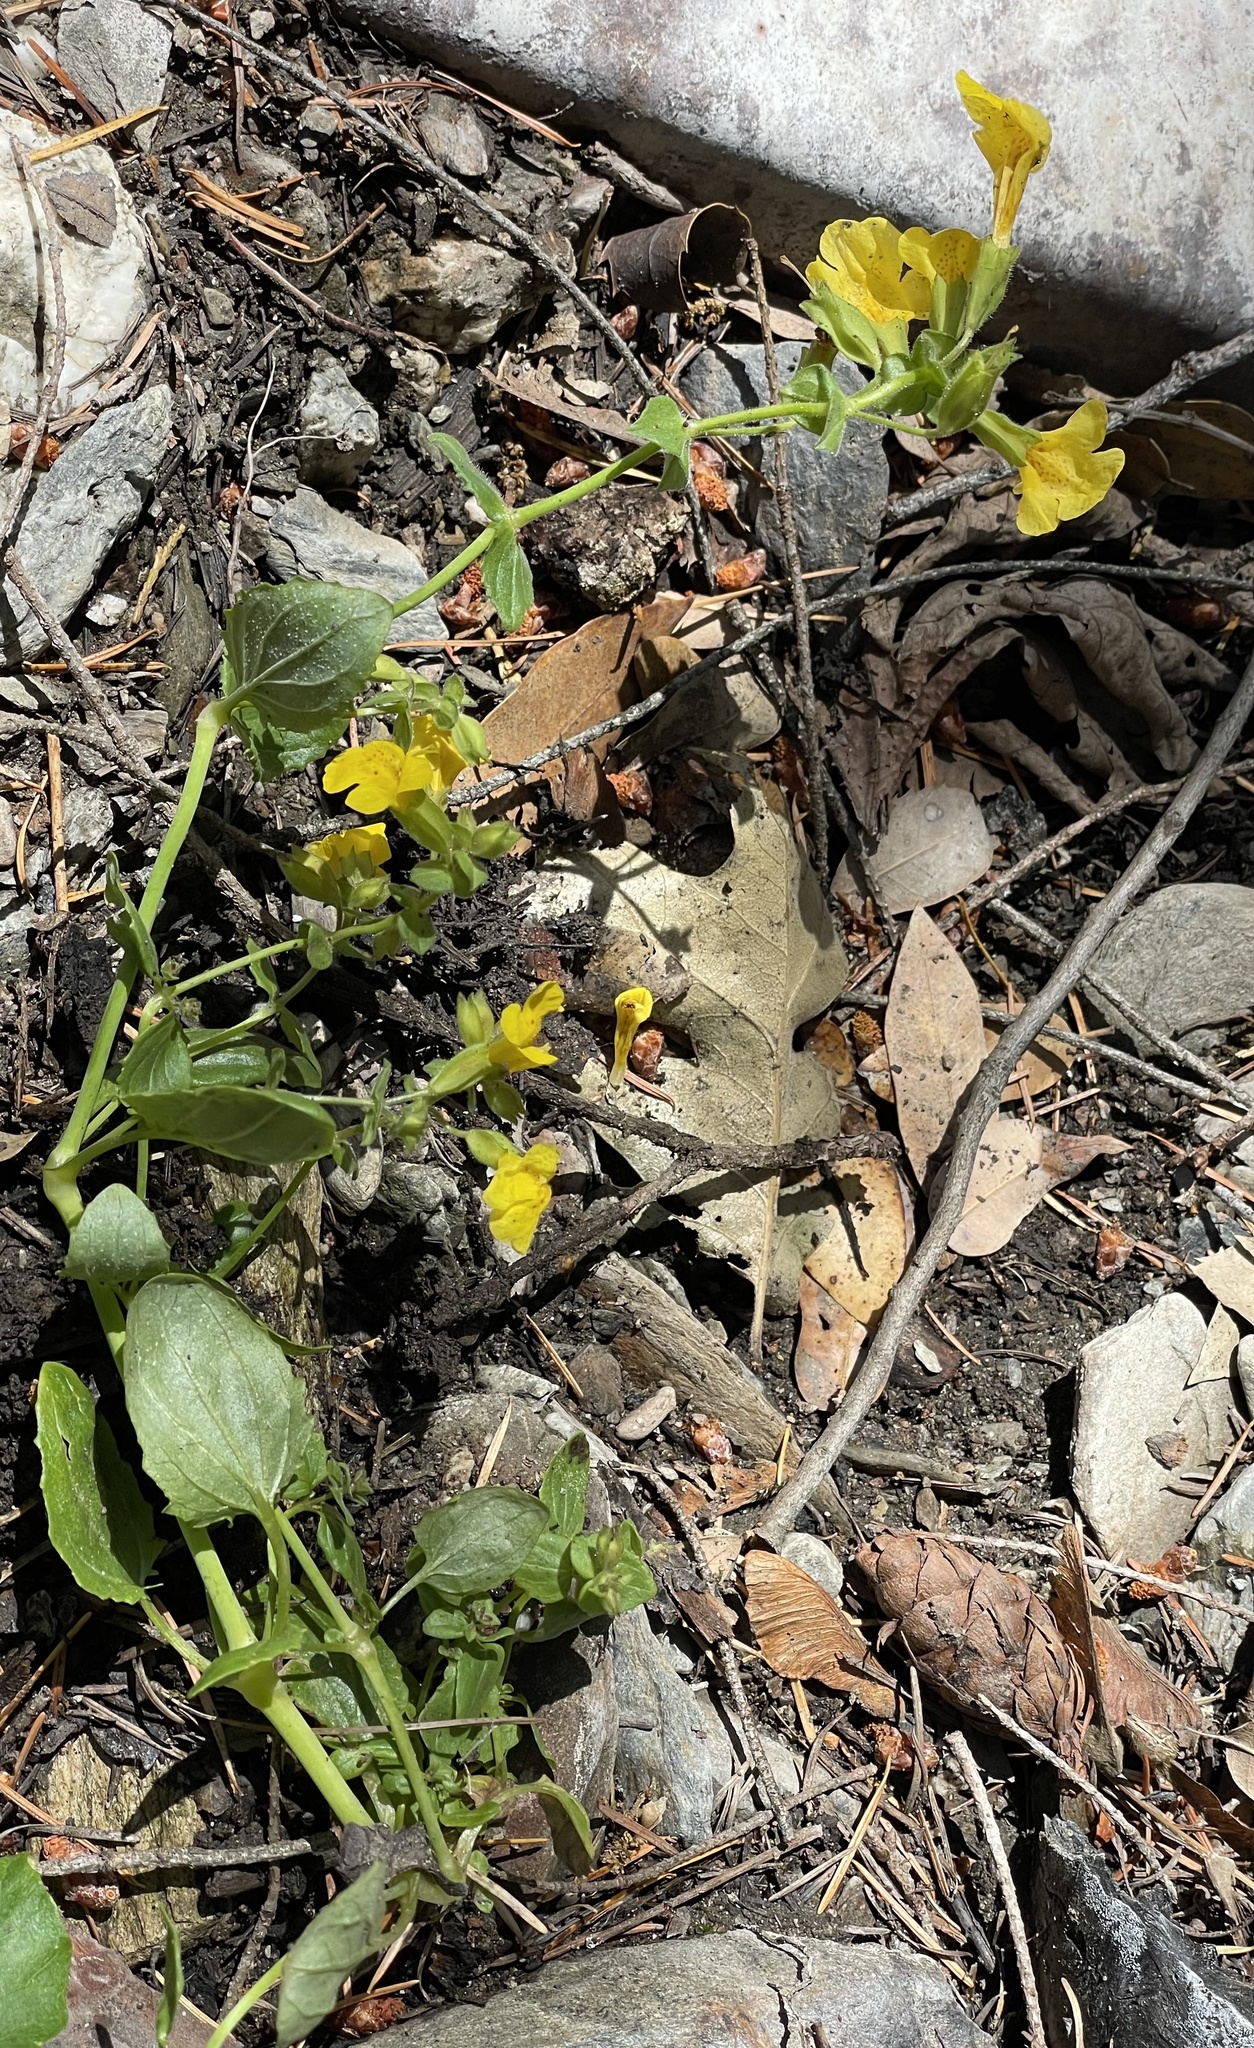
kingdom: Plantae
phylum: Tracheophyta
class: Magnoliopsida
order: Lamiales
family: Phrymaceae
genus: Erythranthe
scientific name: Erythranthe guttata
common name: Monkeyflower
